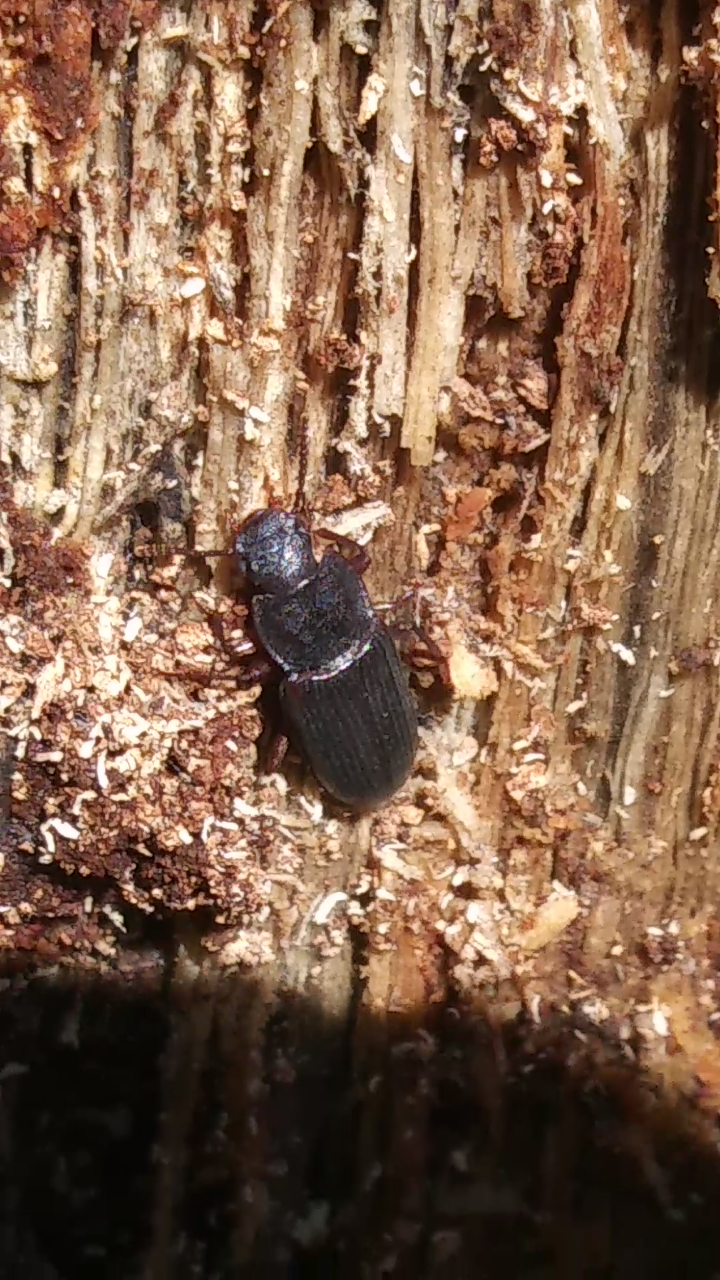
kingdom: Animalia
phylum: Arthropoda
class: Insecta
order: Coleoptera
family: Tenebrionidae
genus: Idiobates
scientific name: Idiobates castaneus
